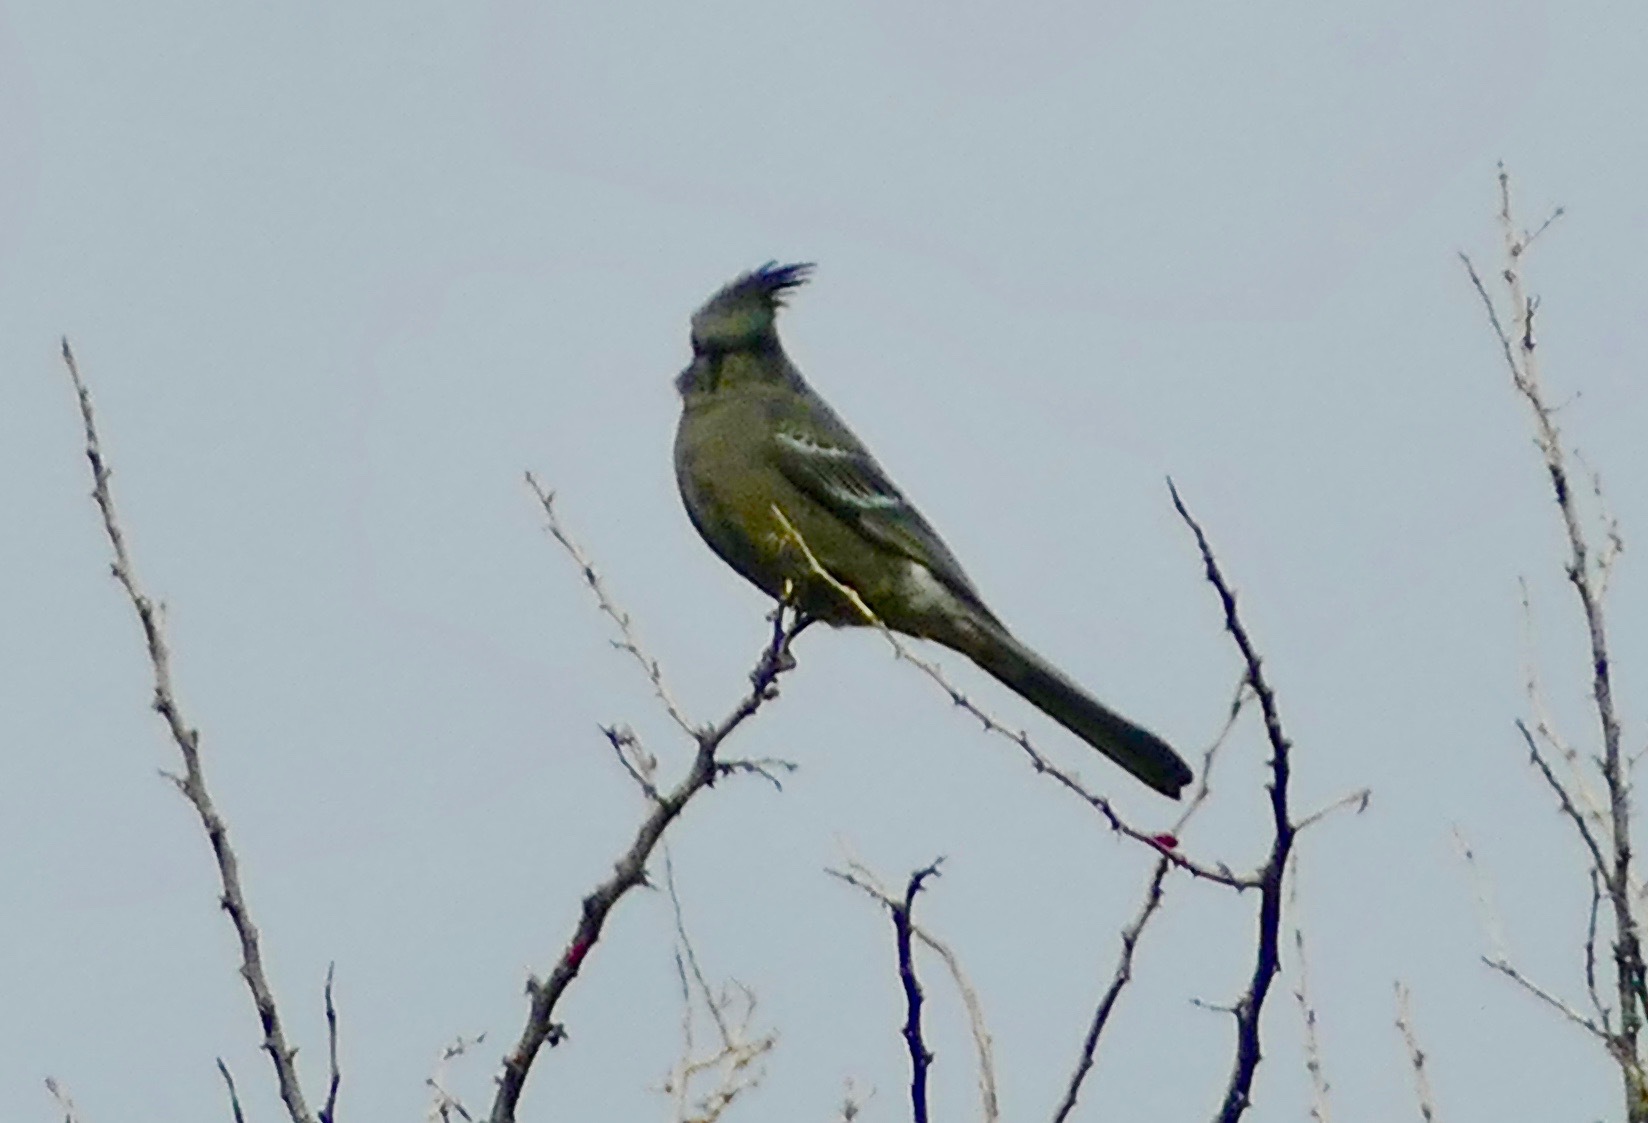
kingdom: Animalia
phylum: Chordata
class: Aves
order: Passeriformes
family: Ptilogonatidae
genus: Phainopepla
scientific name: Phainopepla nitens
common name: Phainopepla
